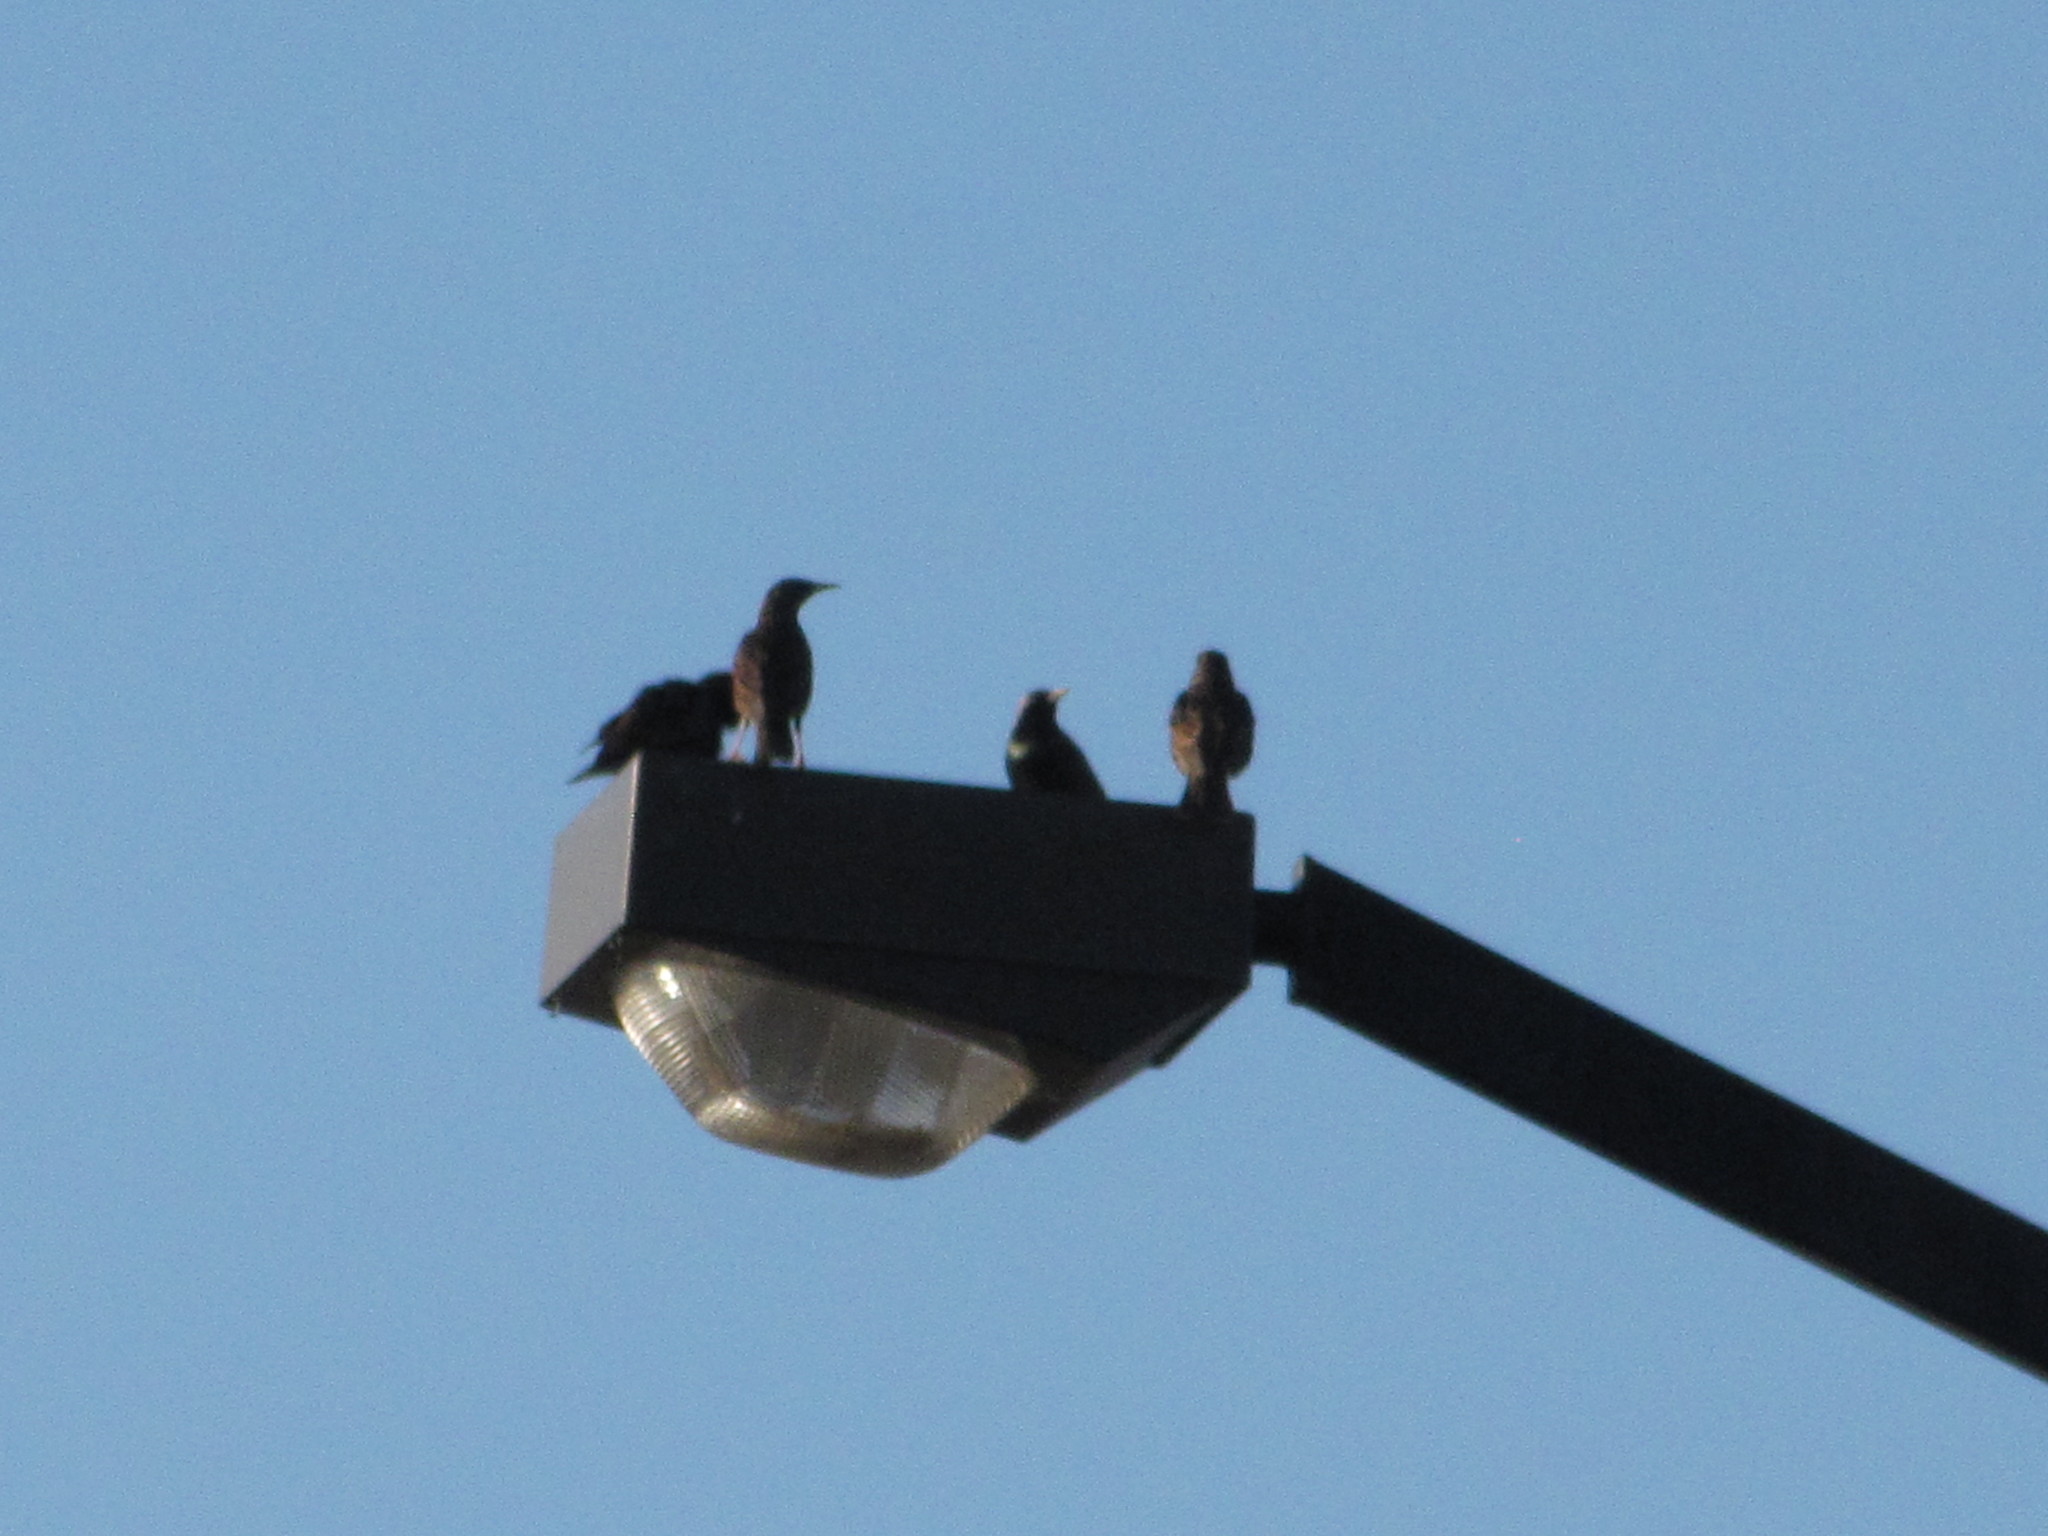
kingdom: Animalia
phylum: Chordata
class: Aves
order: Passeriformes
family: Sturnidae
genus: Sturnus
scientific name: Sturnus vulgaris
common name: Common starling
